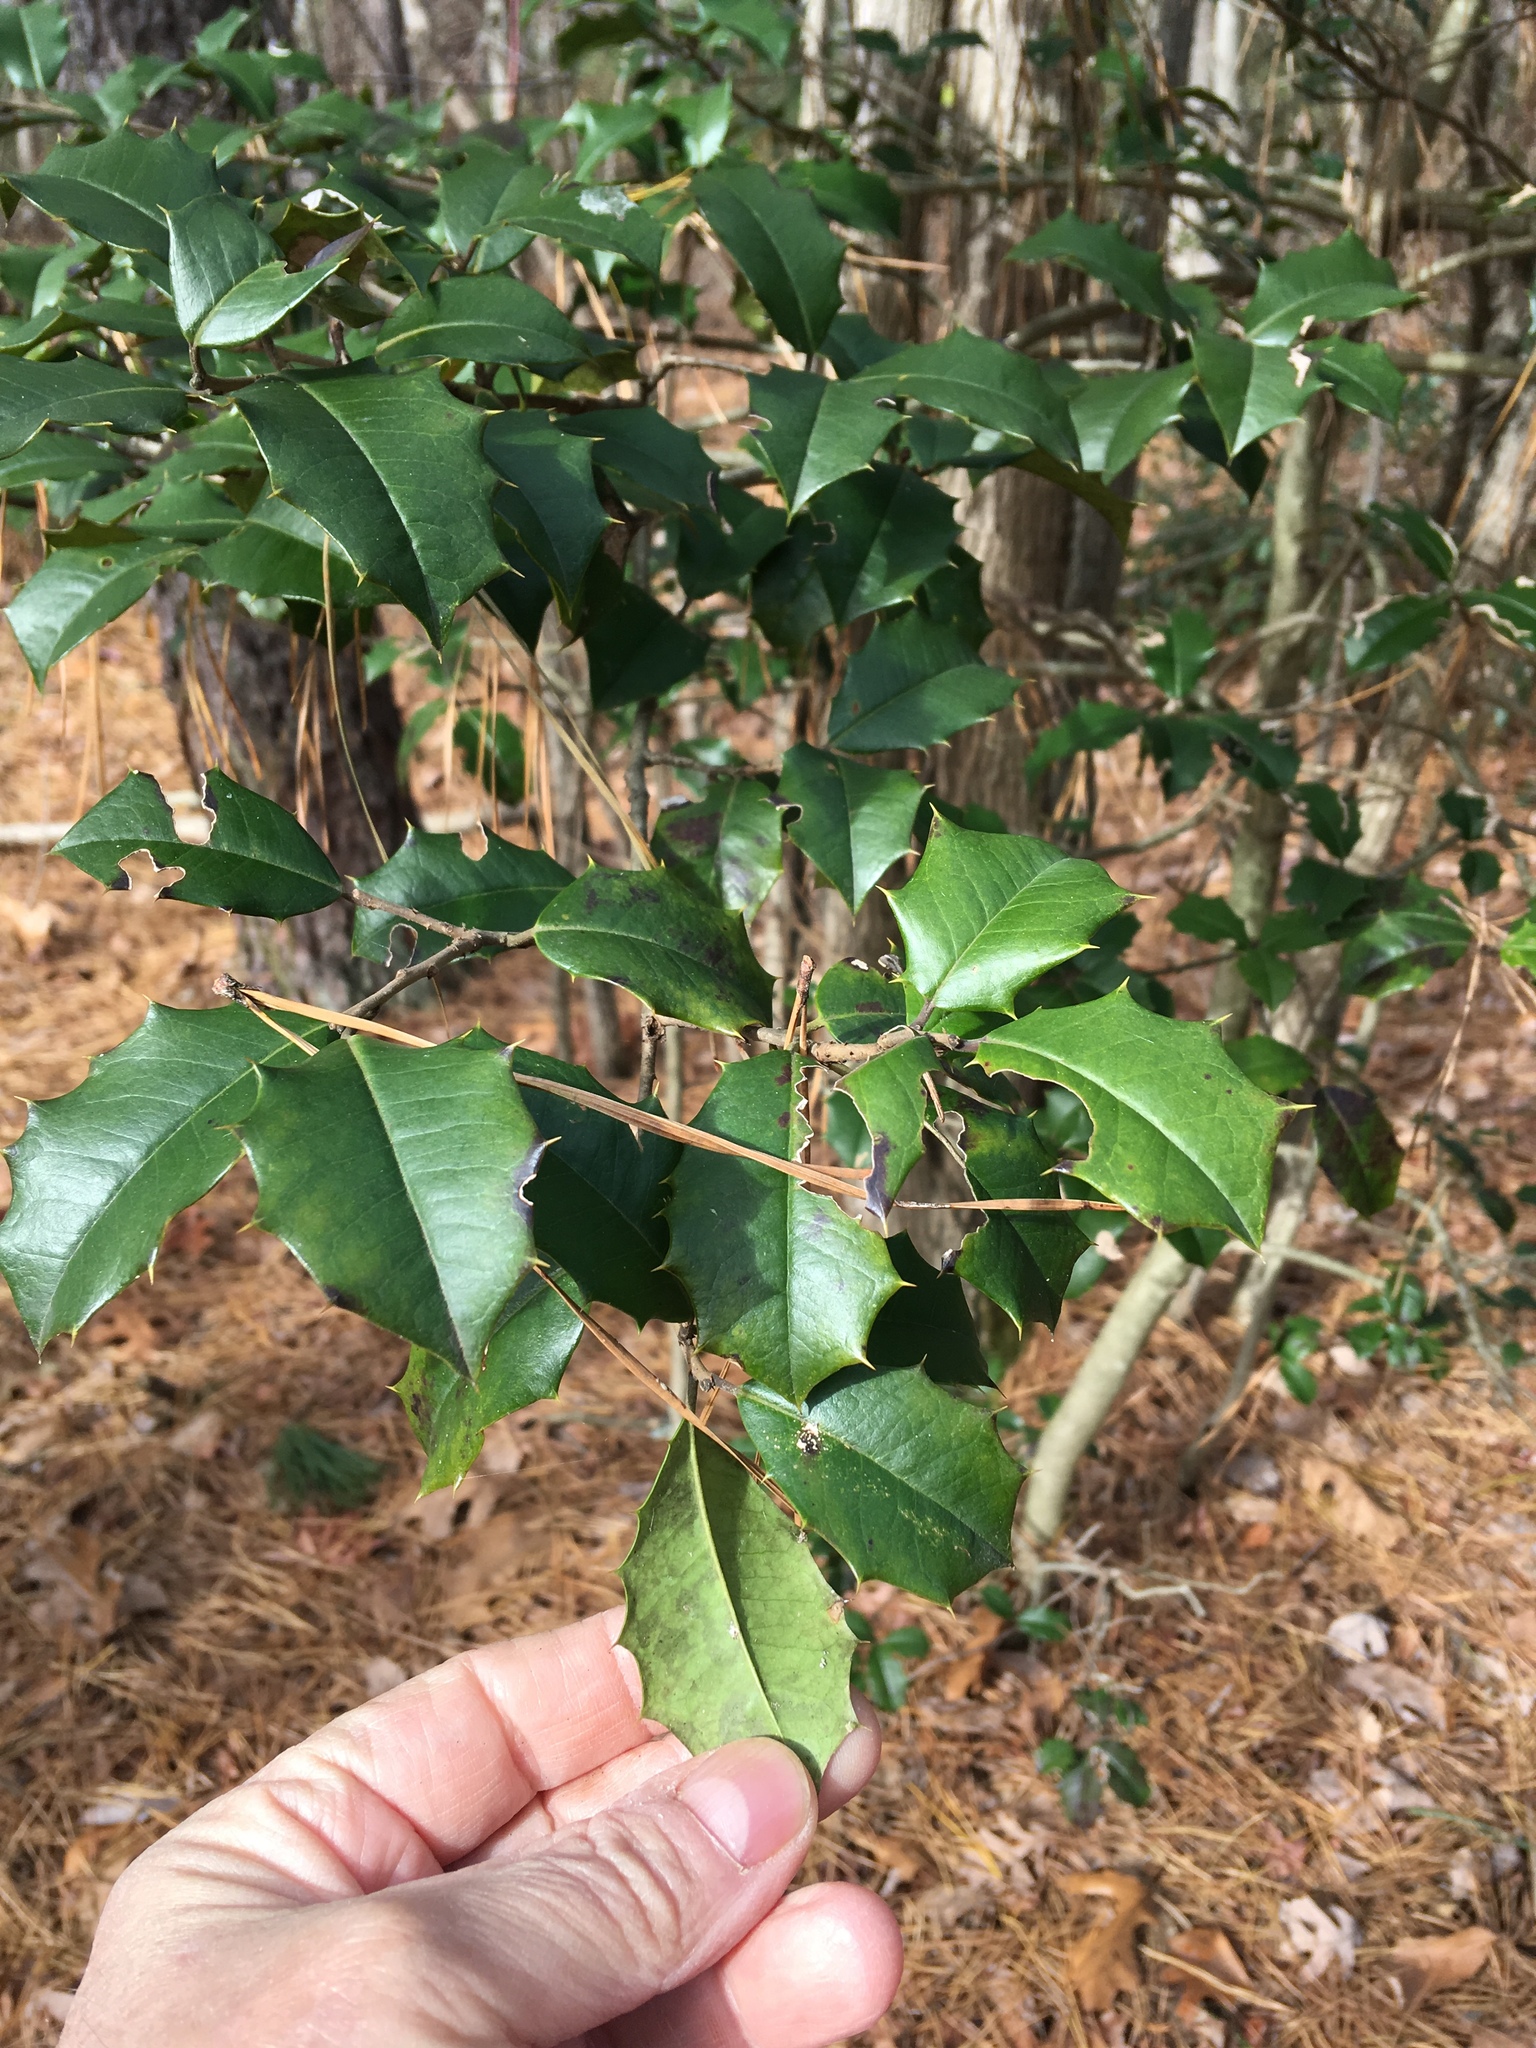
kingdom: Plantae
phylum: Tracheophyta
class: Magnoliopsida
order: Aquifoliales
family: Aquifoliaceae
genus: Ilex
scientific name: Ilex opaca
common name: American holly
